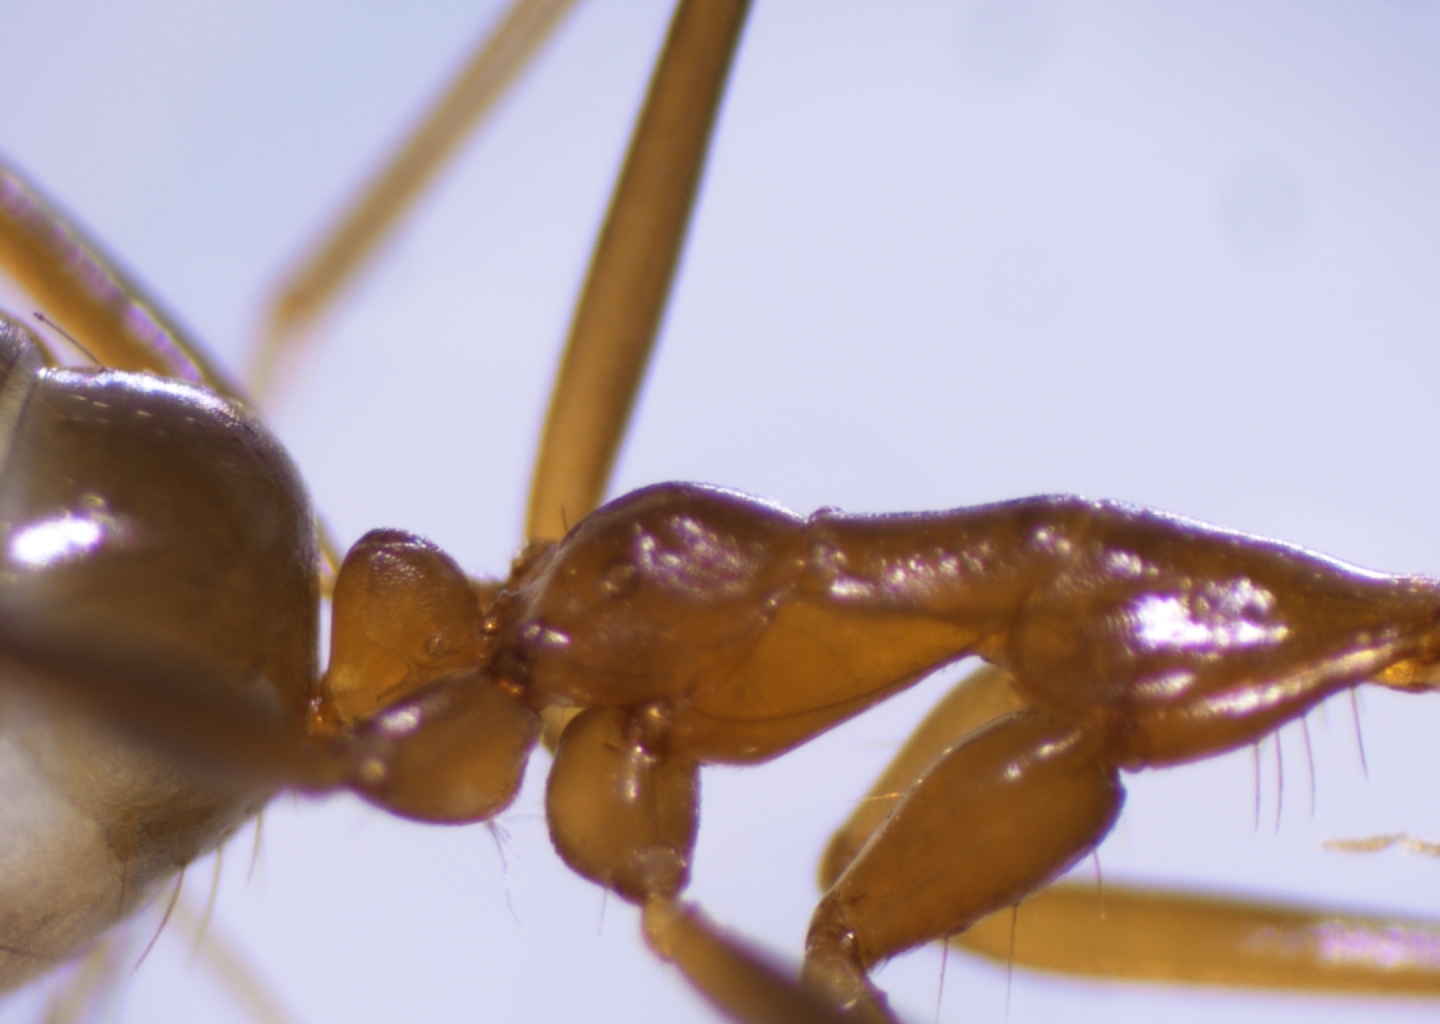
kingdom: Animalia
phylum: Arthropoda
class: Insecta
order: Hymenoptera
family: Formicidae
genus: Anoplolepis
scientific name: Anoplolepis gracilipes
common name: Ant
